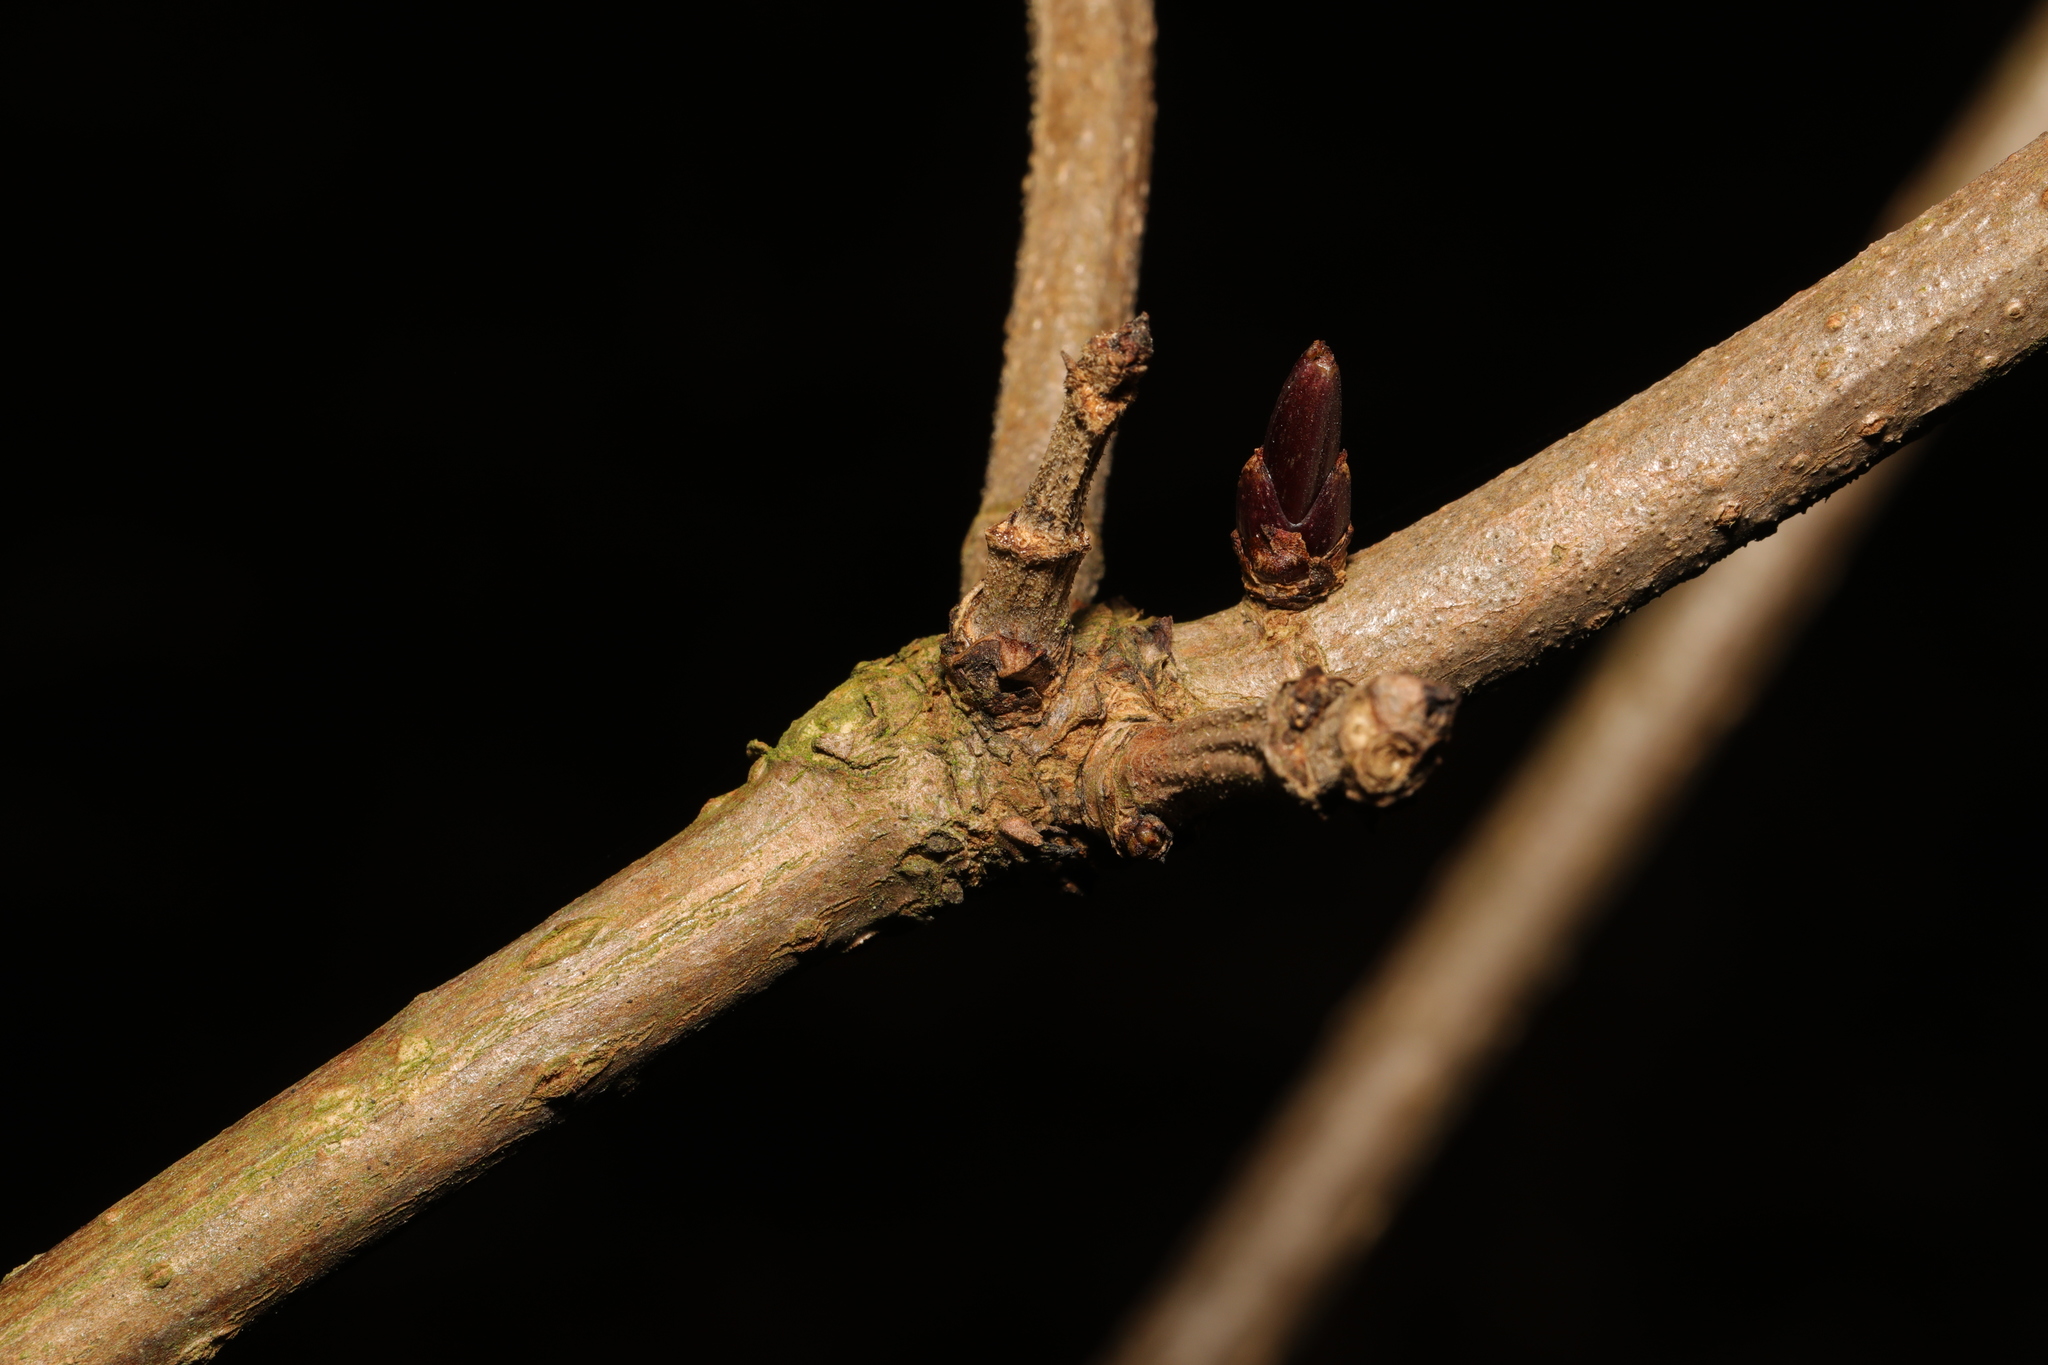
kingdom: Plantae
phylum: Tracheophyta
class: Magnoliopsida
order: Dipsacales
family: Viburnaceae
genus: Sambucus
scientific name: Sambucus nigra
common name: Elder
